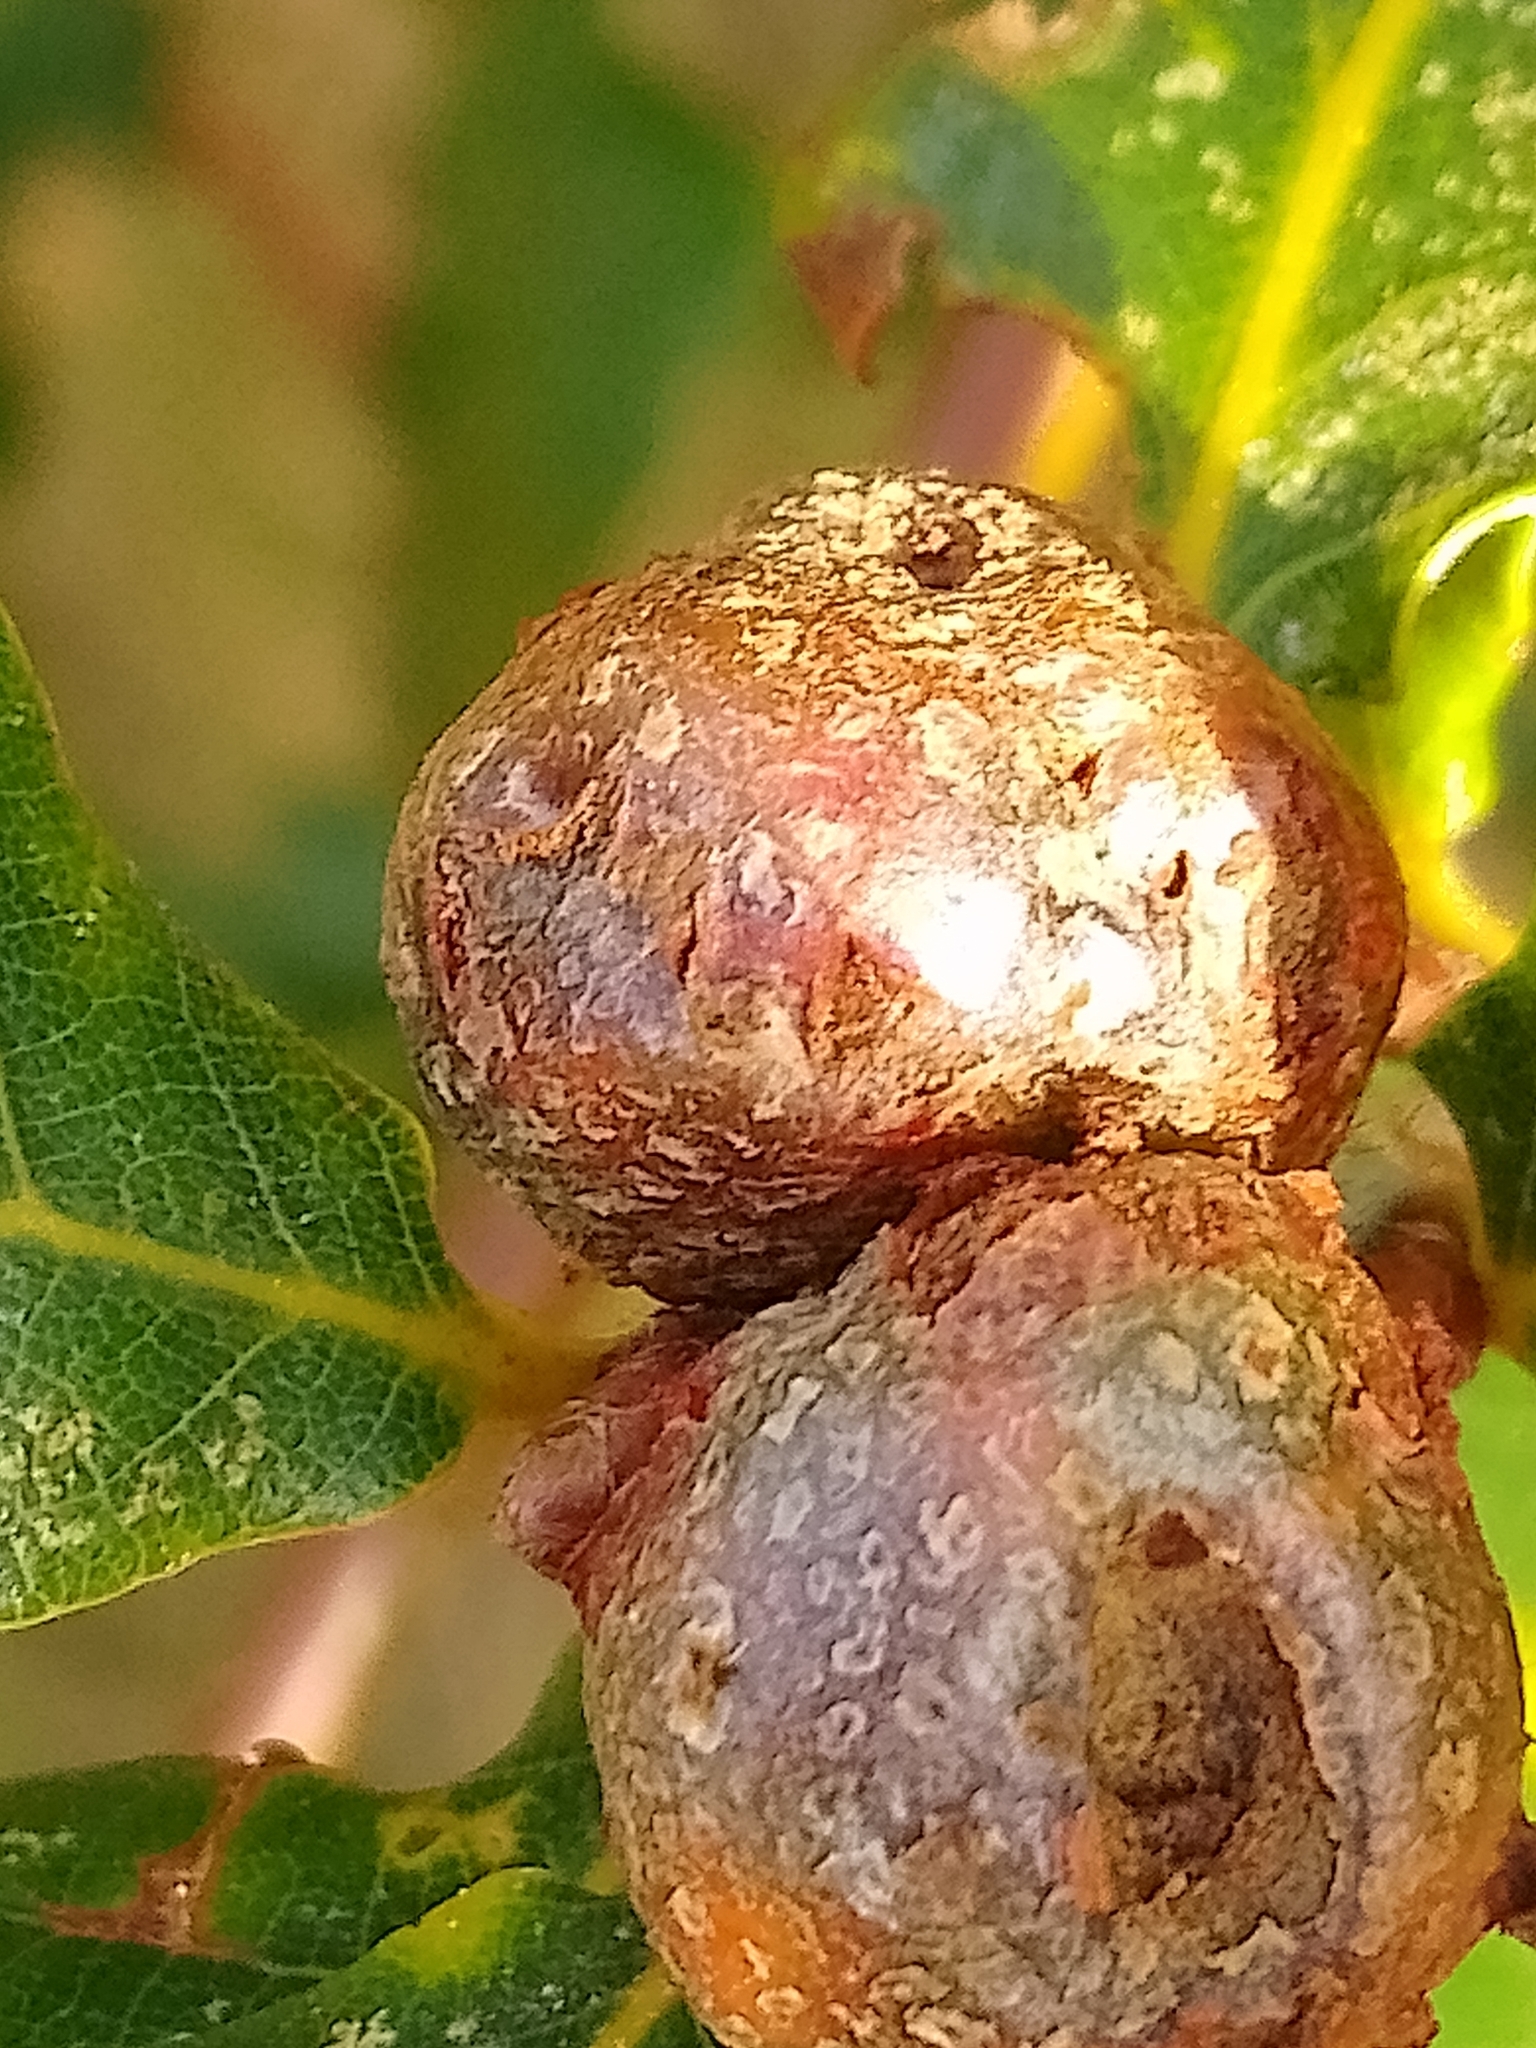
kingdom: Animalia
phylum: Arthropoda
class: Insecta
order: Hymenoptera
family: Cynipidae
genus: Andricus
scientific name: Andricus lignicolus
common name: Cola-nut gall
